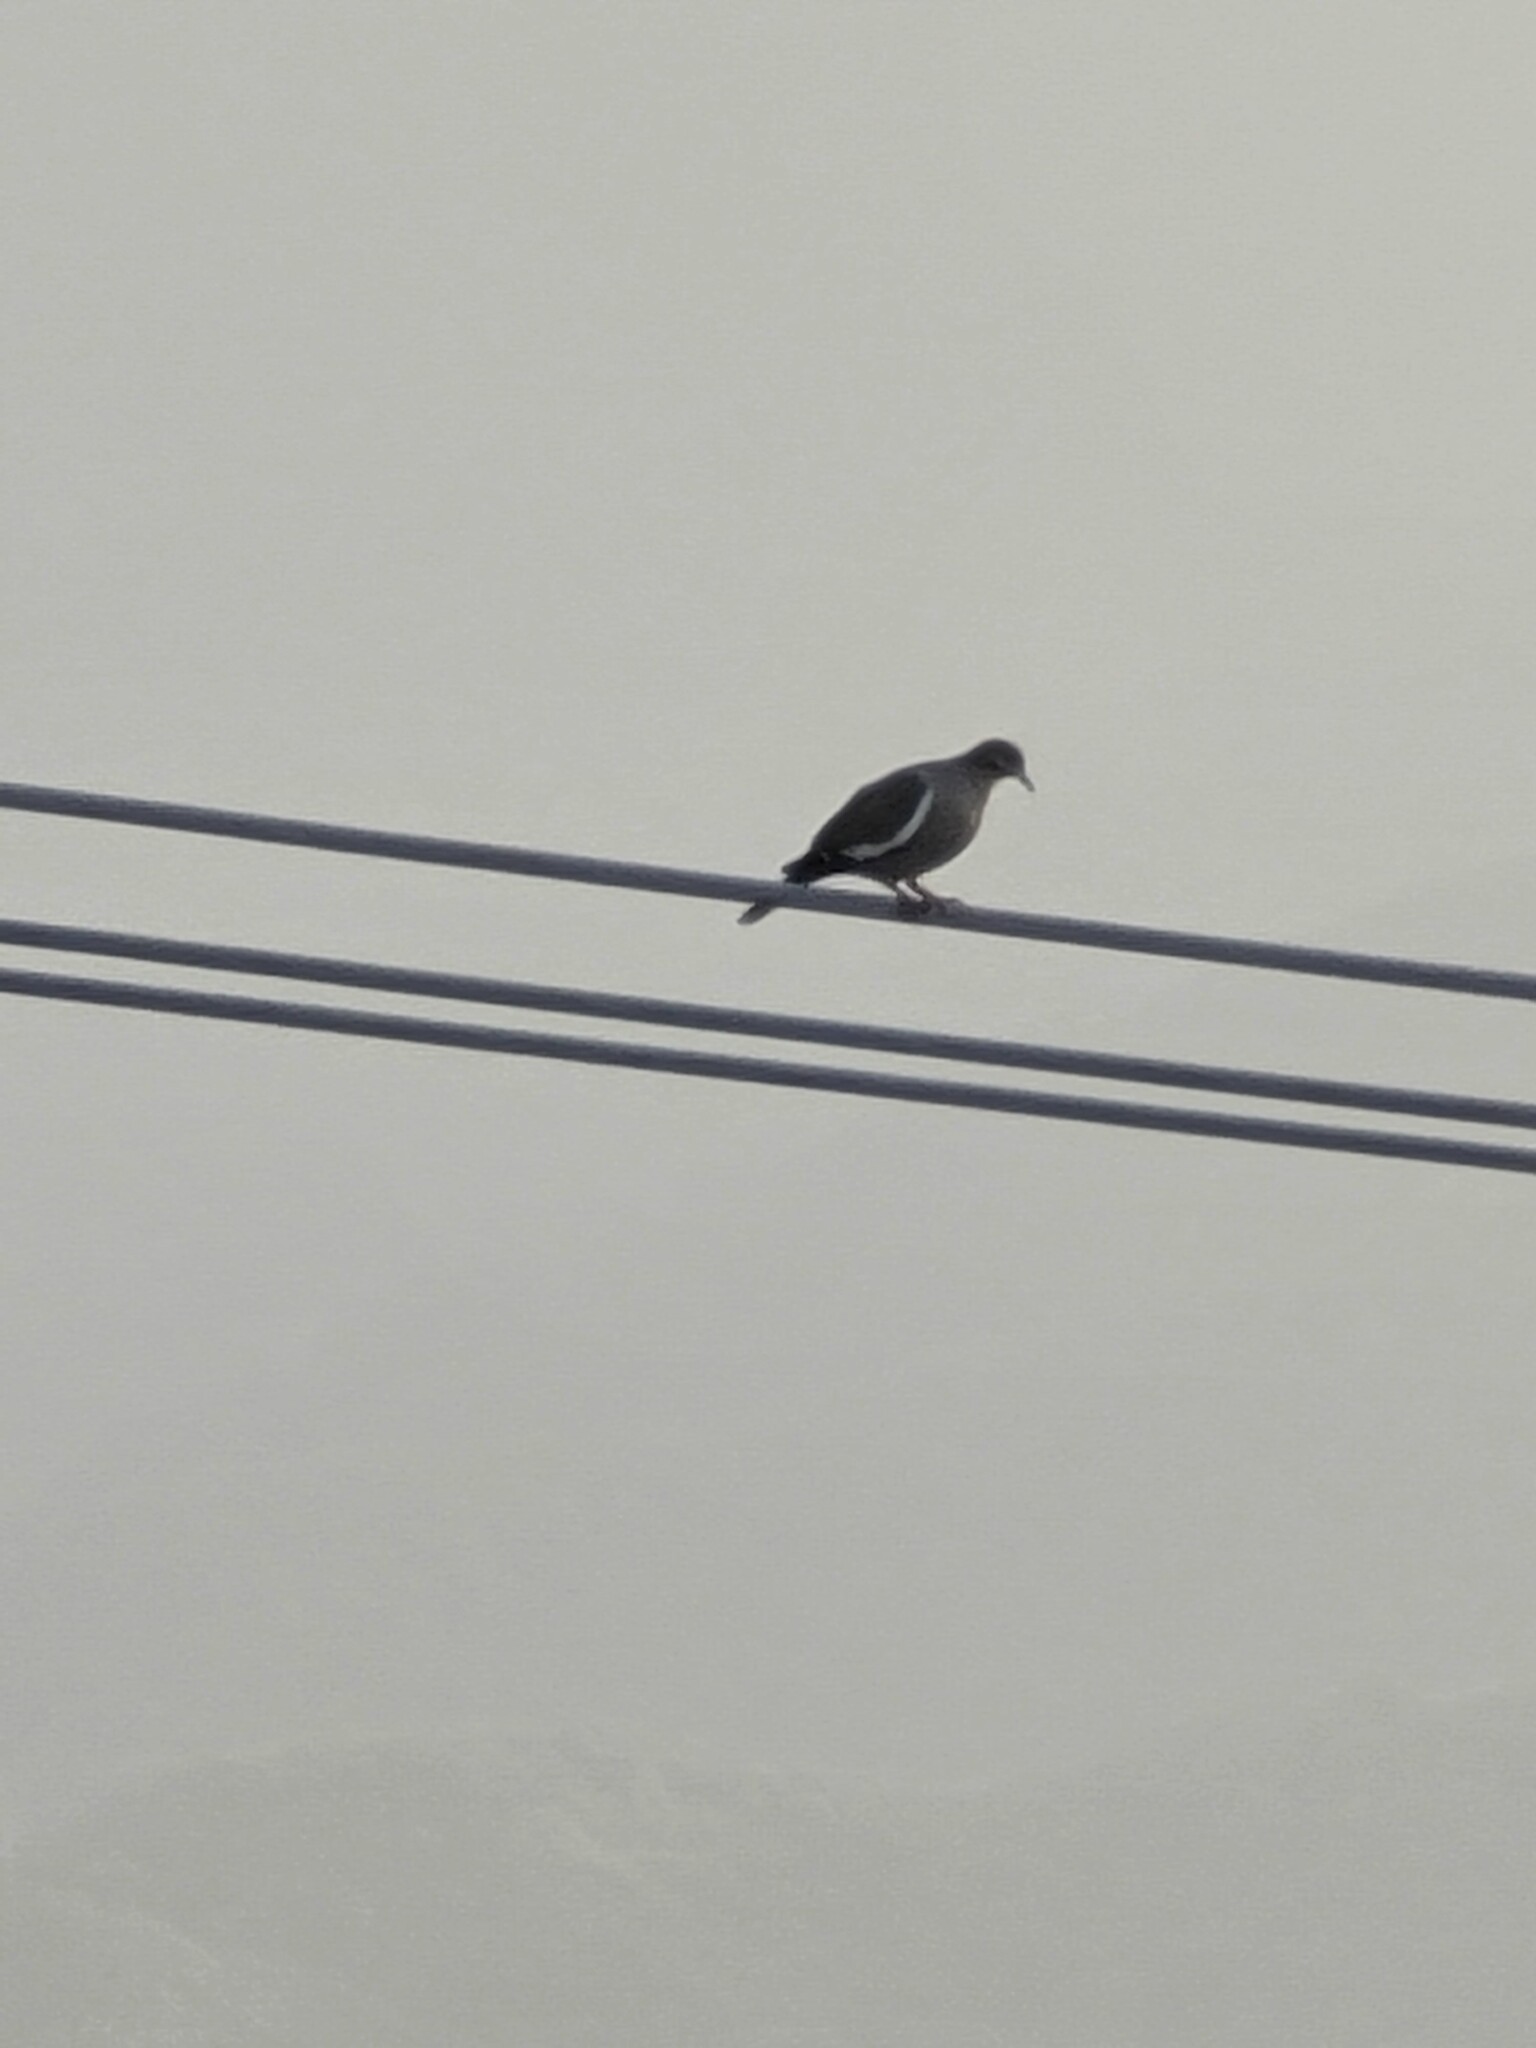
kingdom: Animalia
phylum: Chordata
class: Aves
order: Columbiformes
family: Columbidae
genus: Zenaida
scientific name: Zenaida asiatica
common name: White-winged dove
